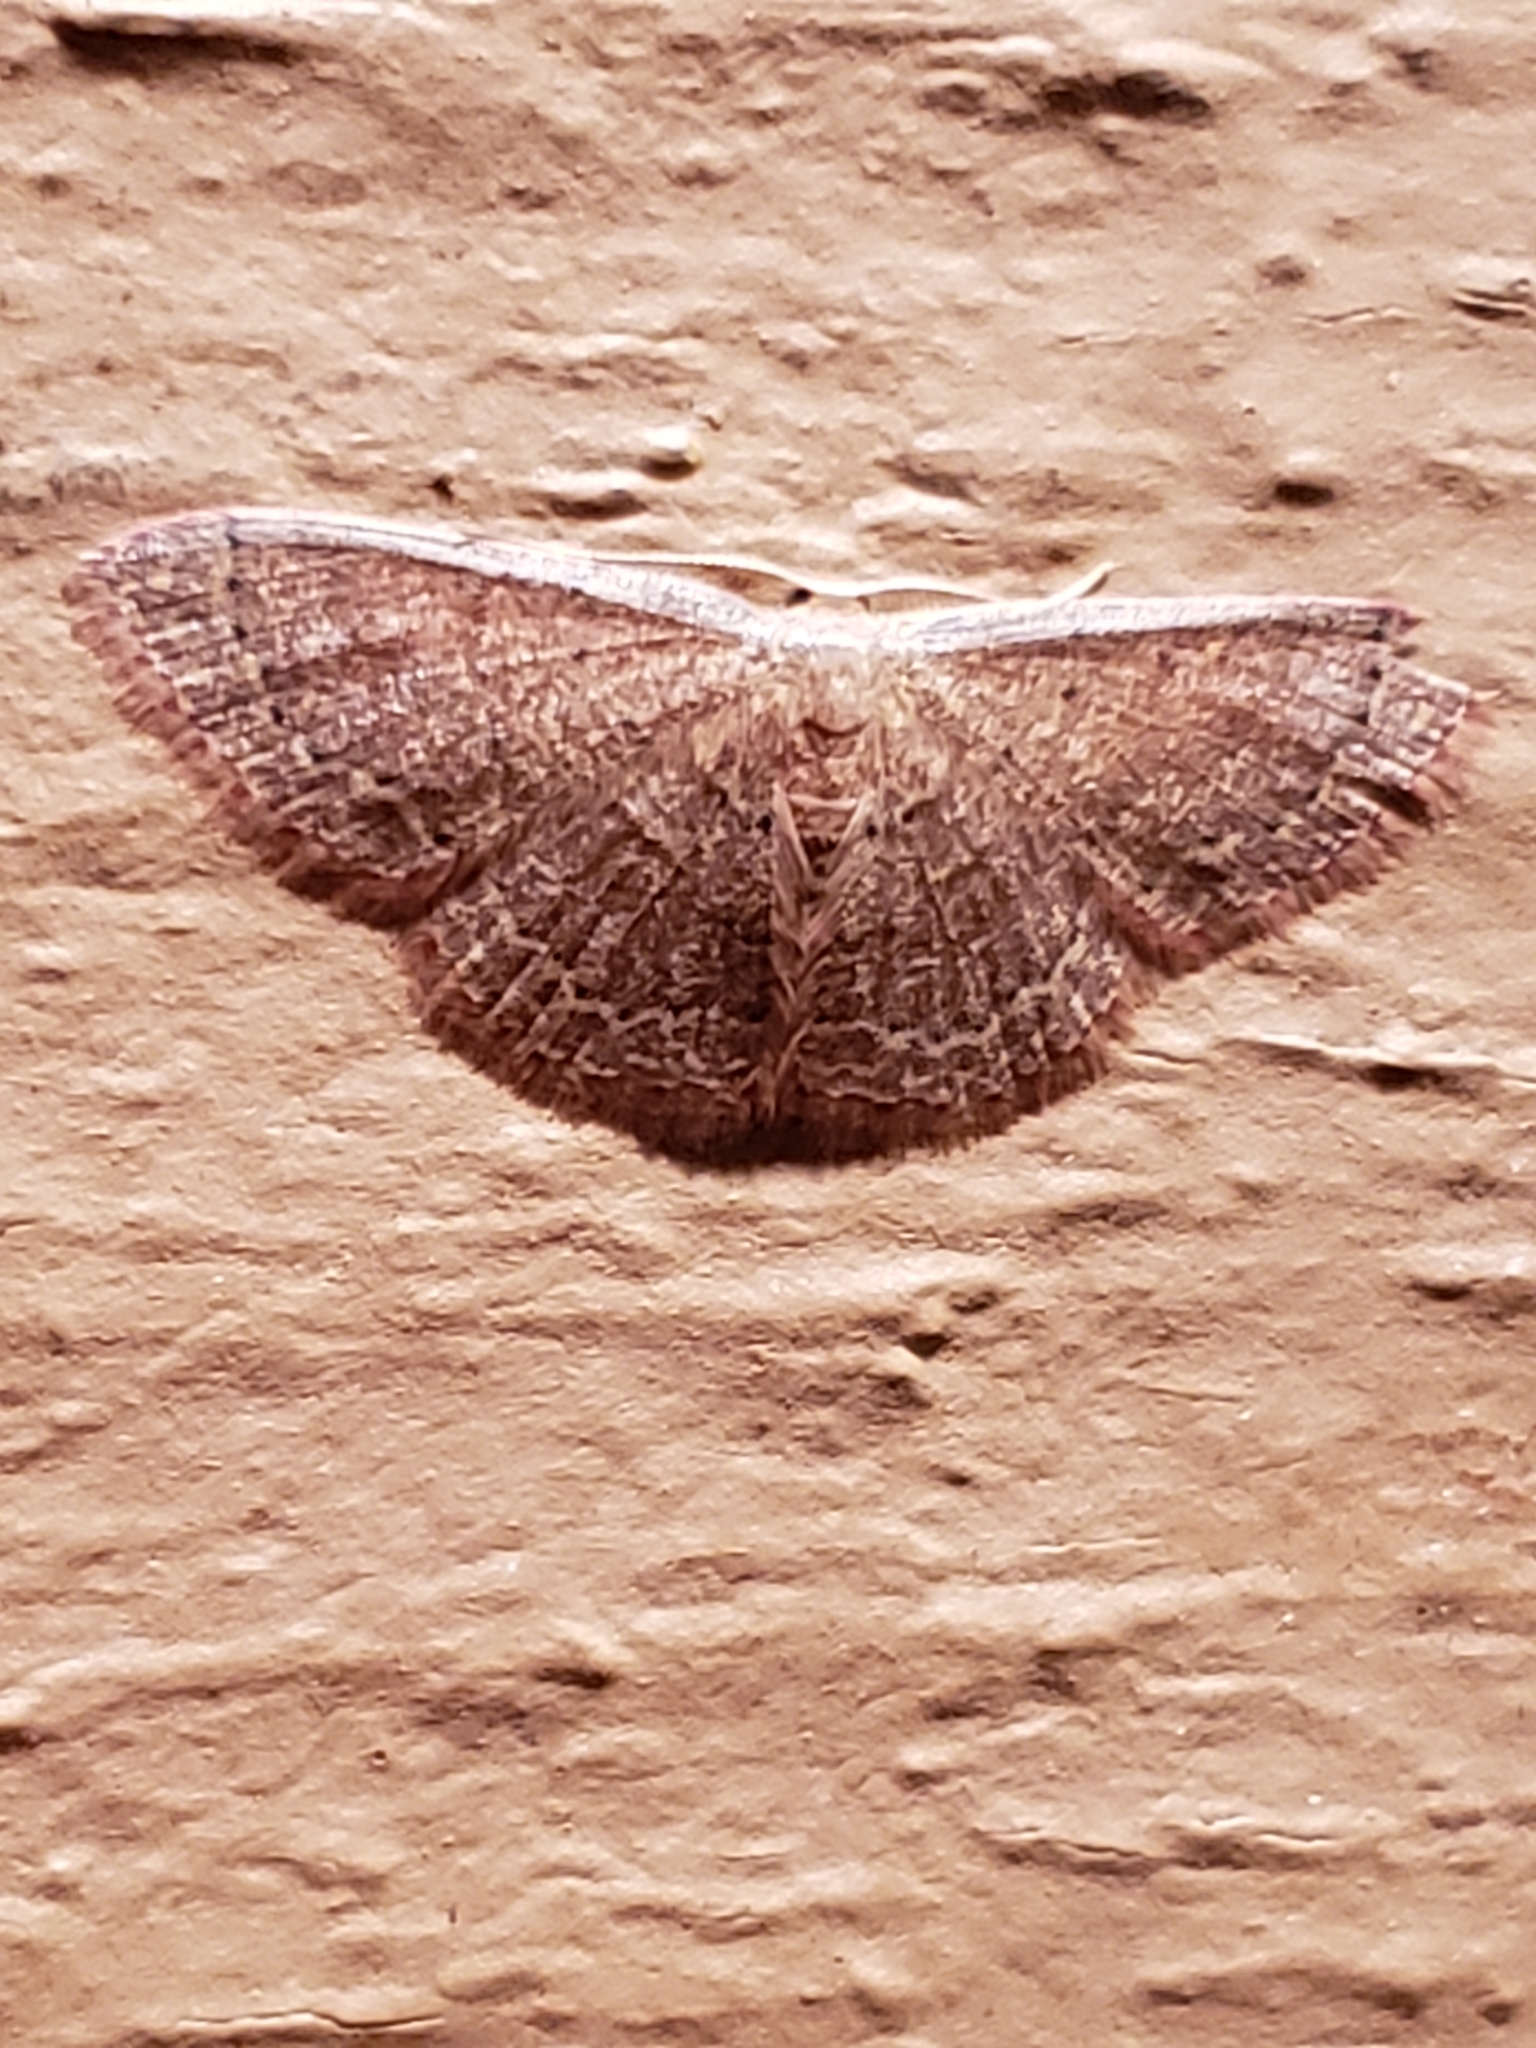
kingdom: Animalia
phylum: Arthropoda
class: Insecta
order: Lepidoptera
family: Geometridae
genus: Pleuroprucha
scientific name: Pleuroprucha insulsaria
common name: Common tan wave
